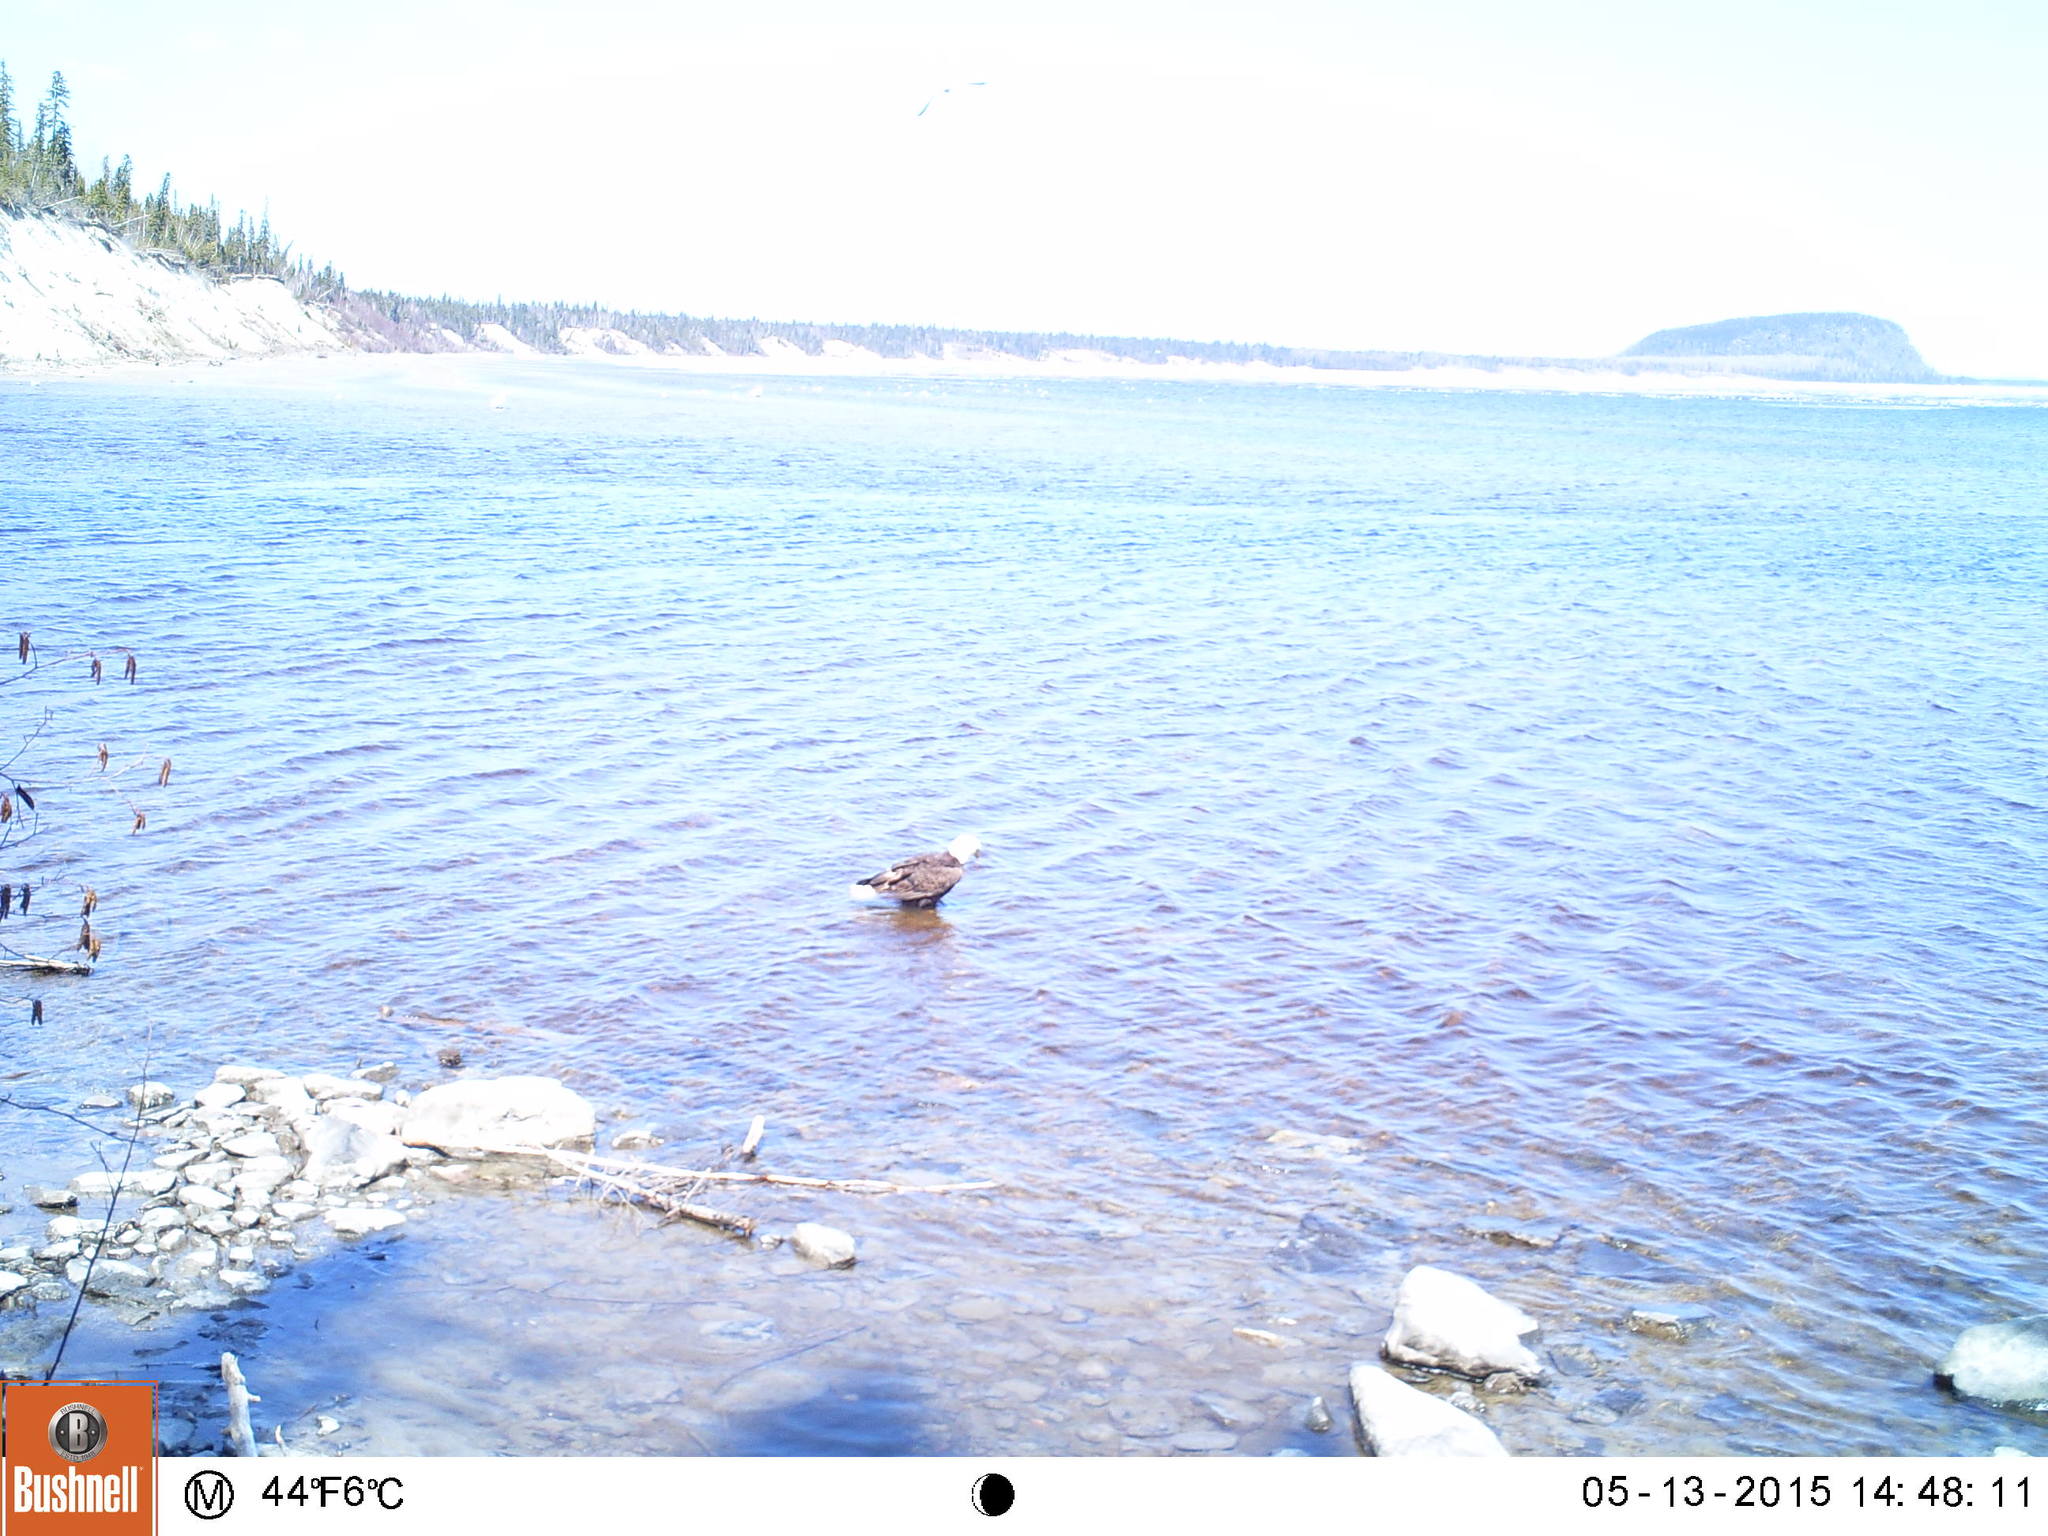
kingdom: Animalia
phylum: Chordata
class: Aves
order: Accipitriformes
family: Accipitridae
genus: Haliaeetus
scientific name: Haliaeetus leucocephalus
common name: Bald eagle
